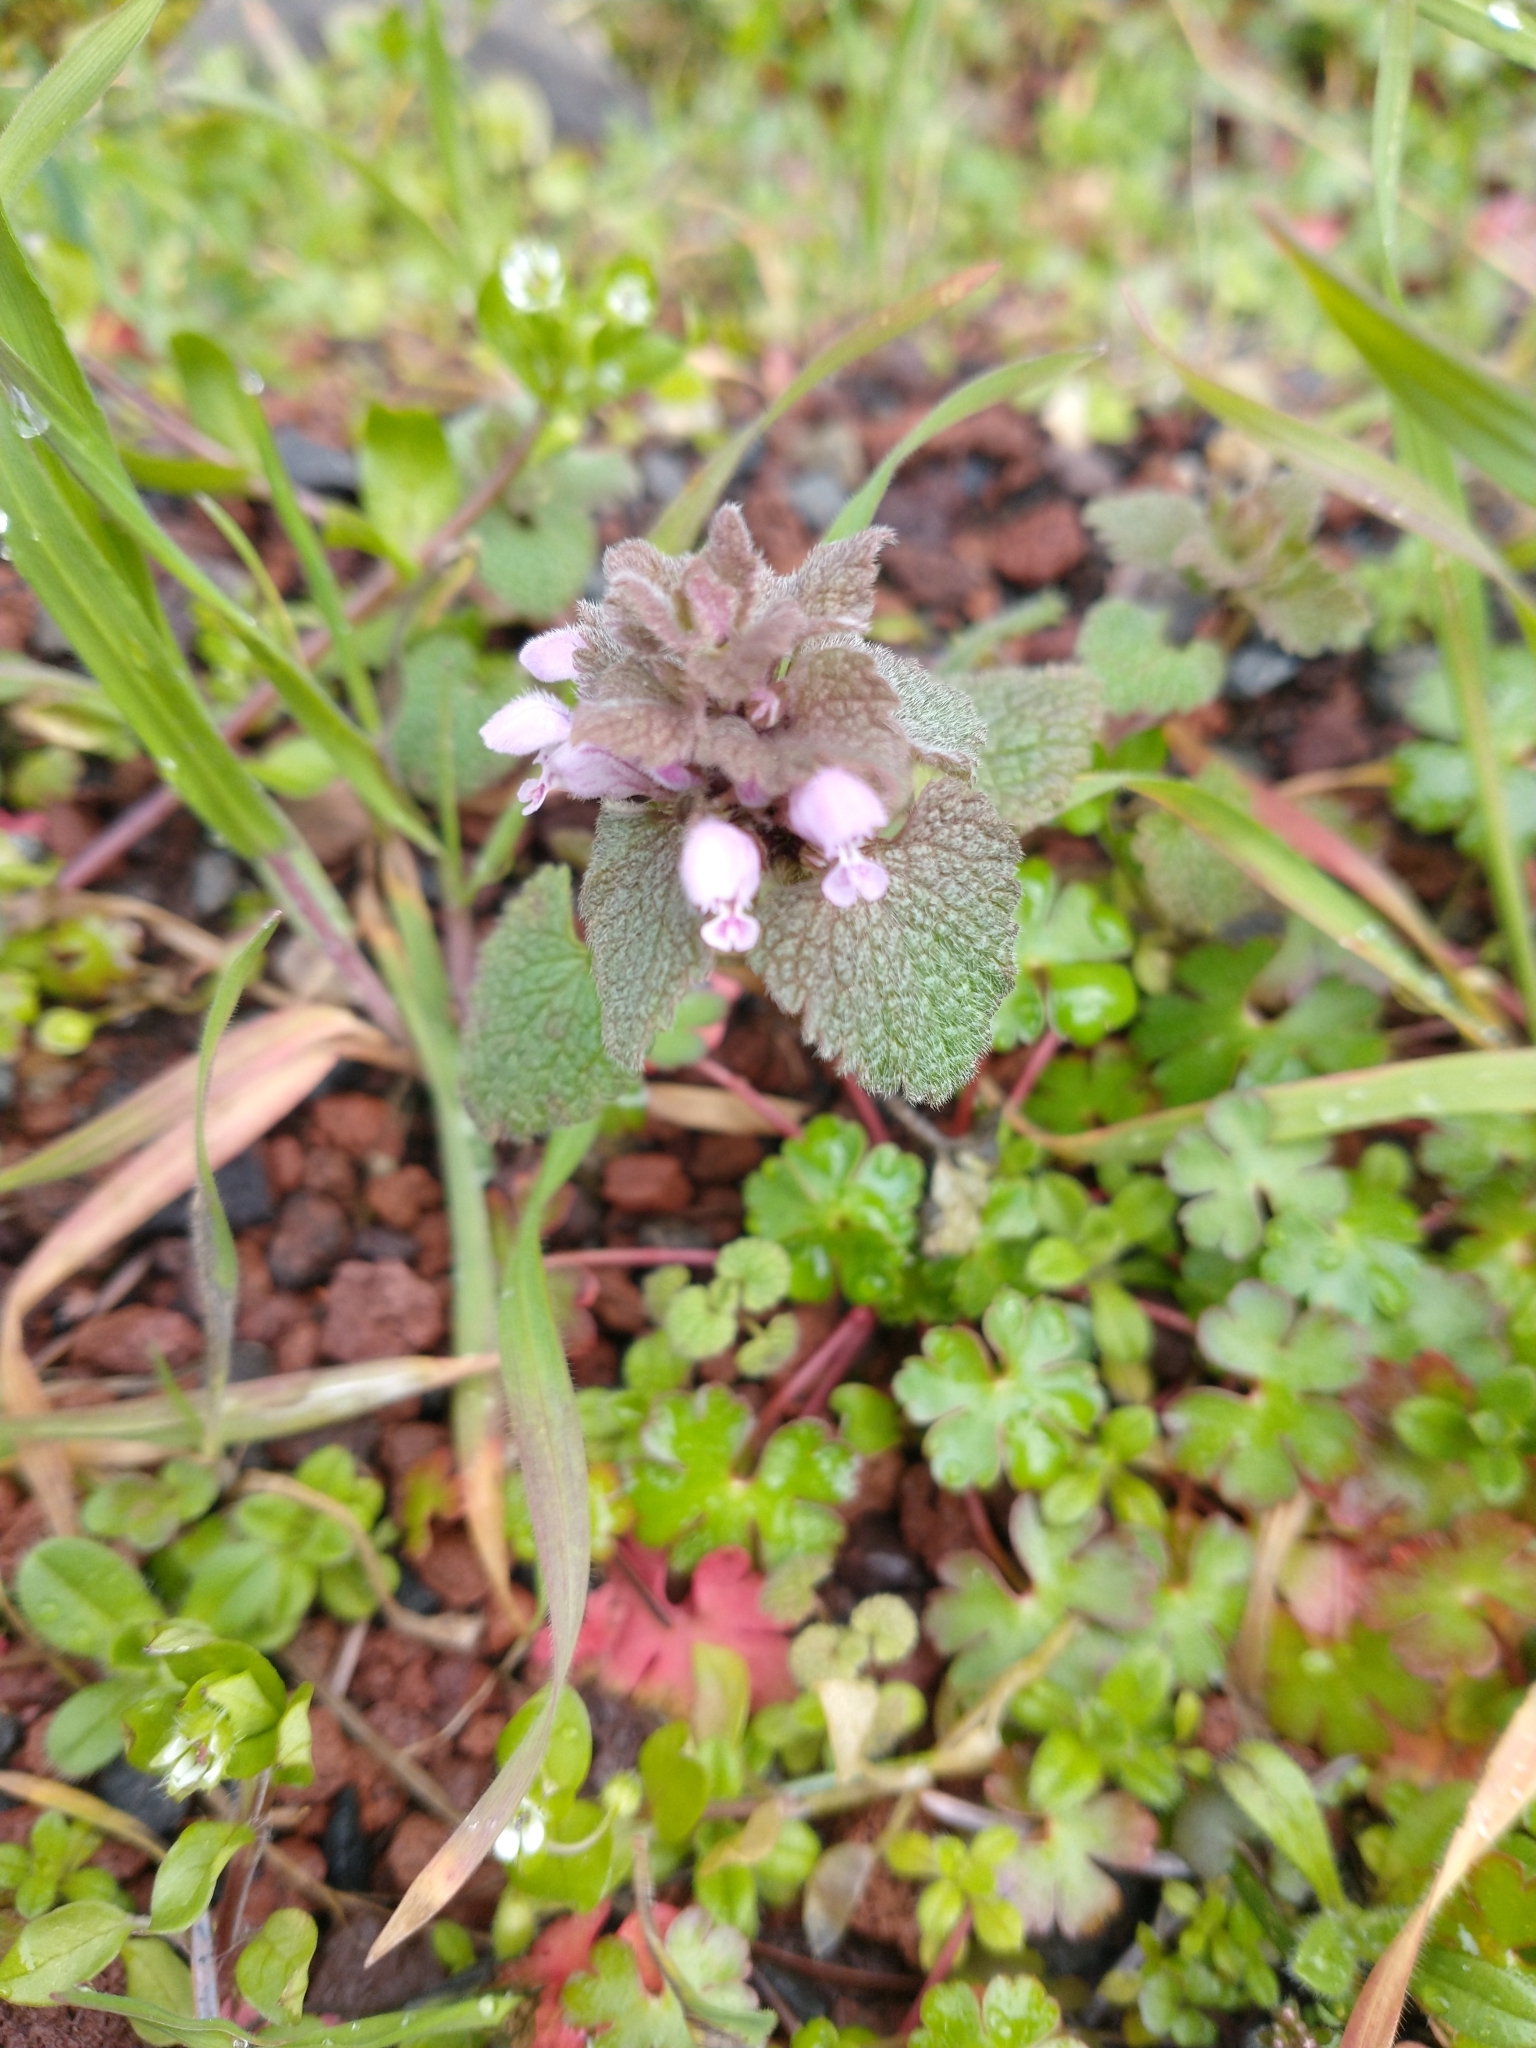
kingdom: Plantae
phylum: Tracheophyta
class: Magnoliopsida
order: Lamiales
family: Lamiaceae
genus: Lamium
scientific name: Lamium purpureum
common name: Red dead-nettle
